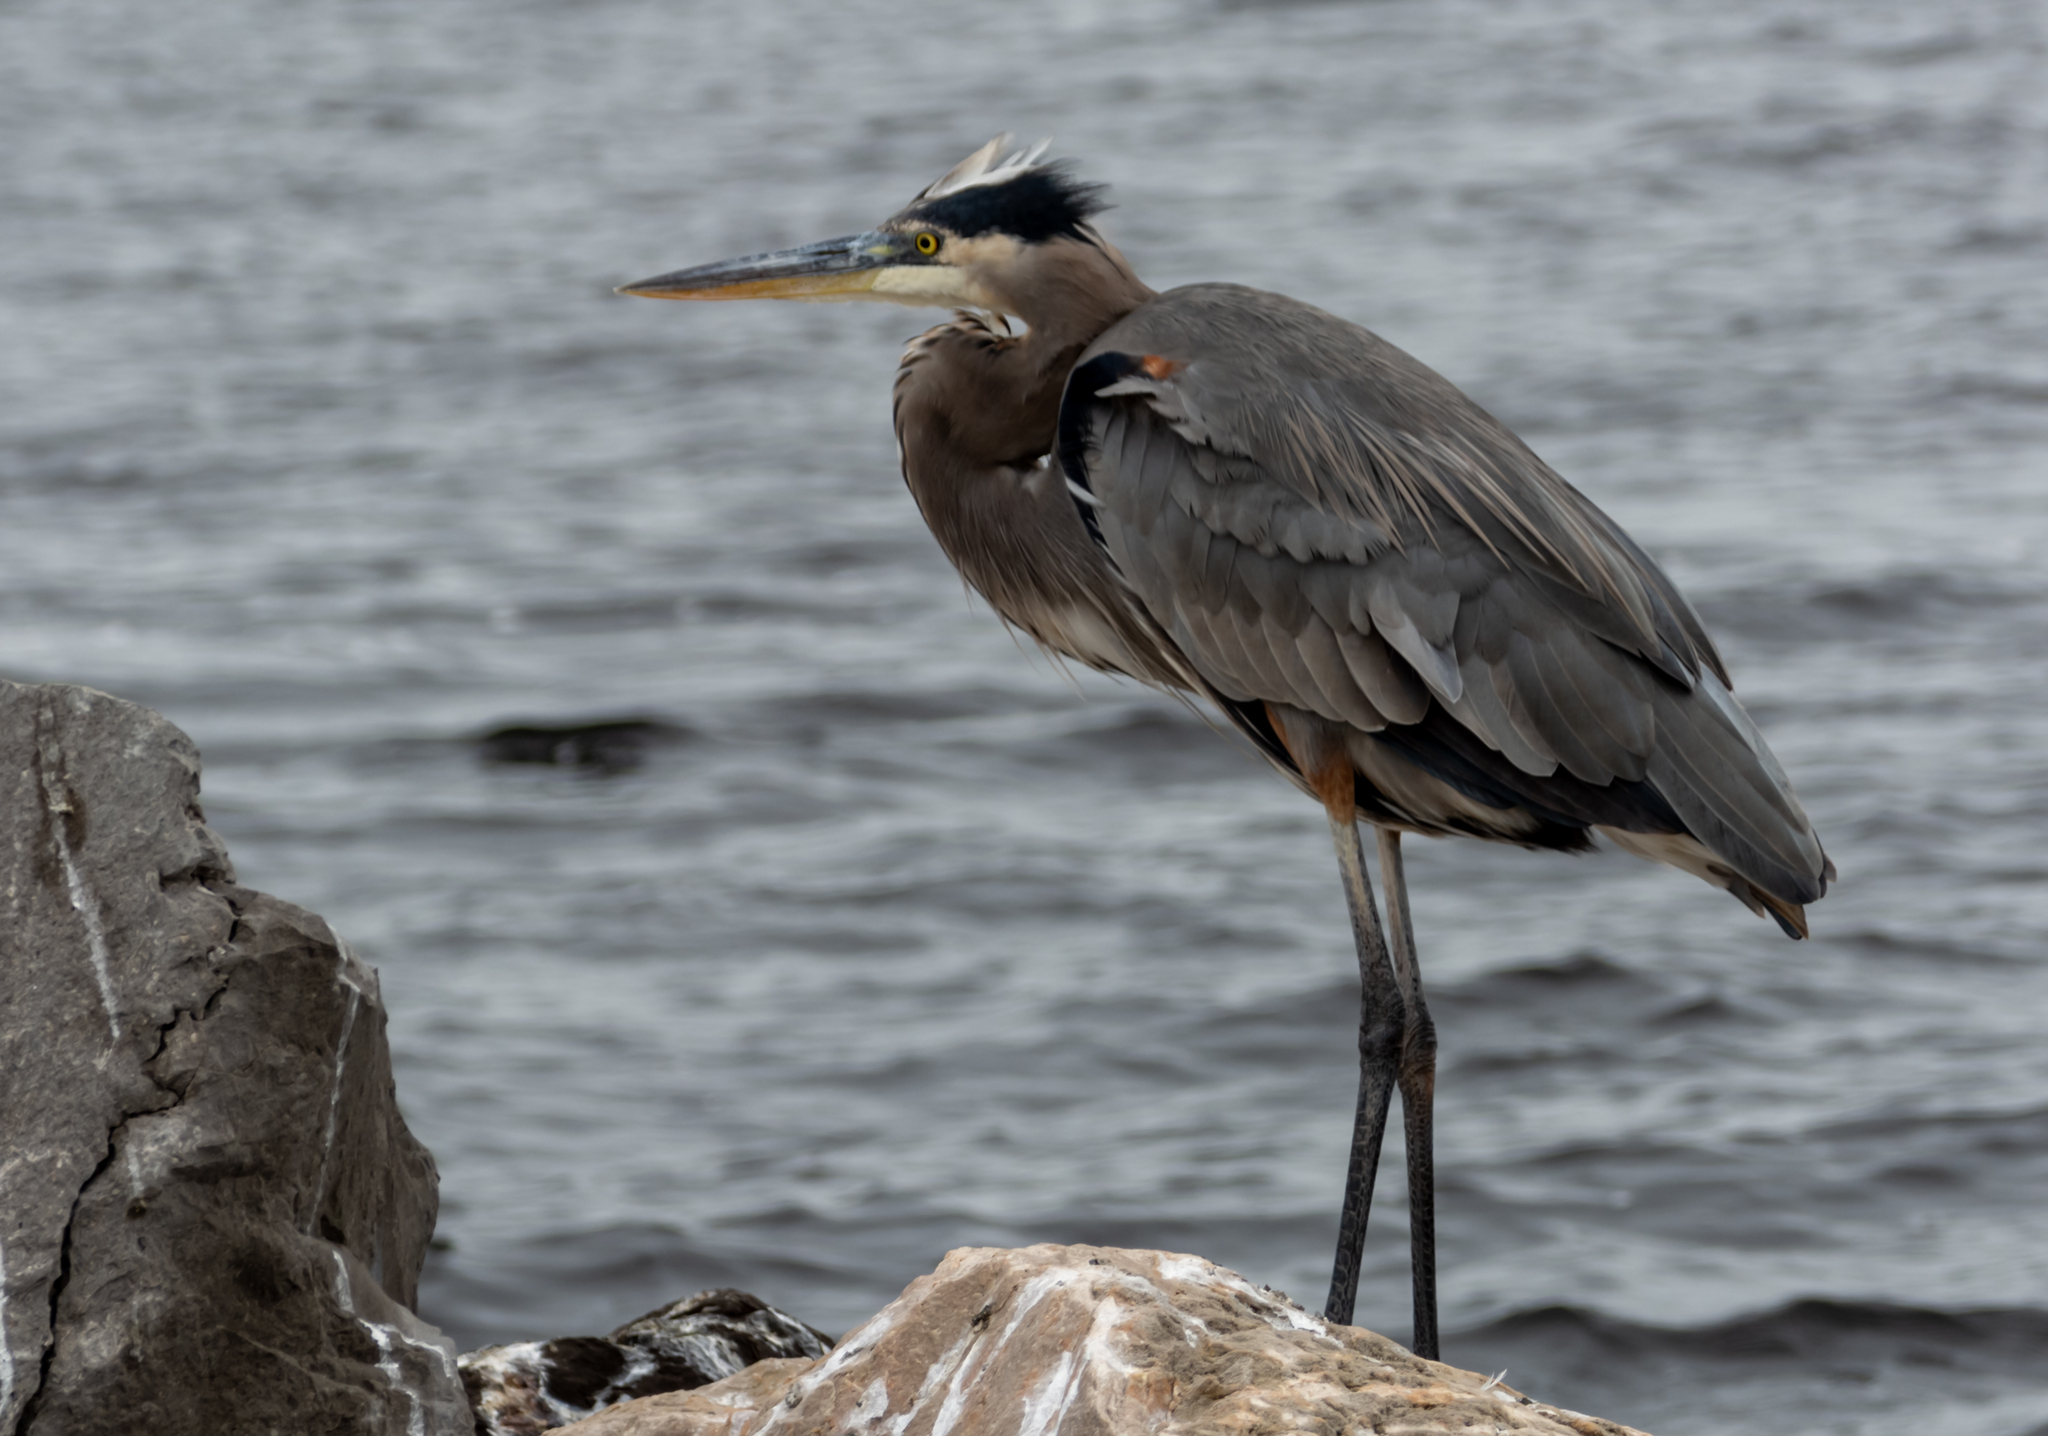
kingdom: Animalia
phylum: Chordata
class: Aves
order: Pelecaniformes
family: Ardeidae
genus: Ardea
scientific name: Ardea herodias
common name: Great blue heron
